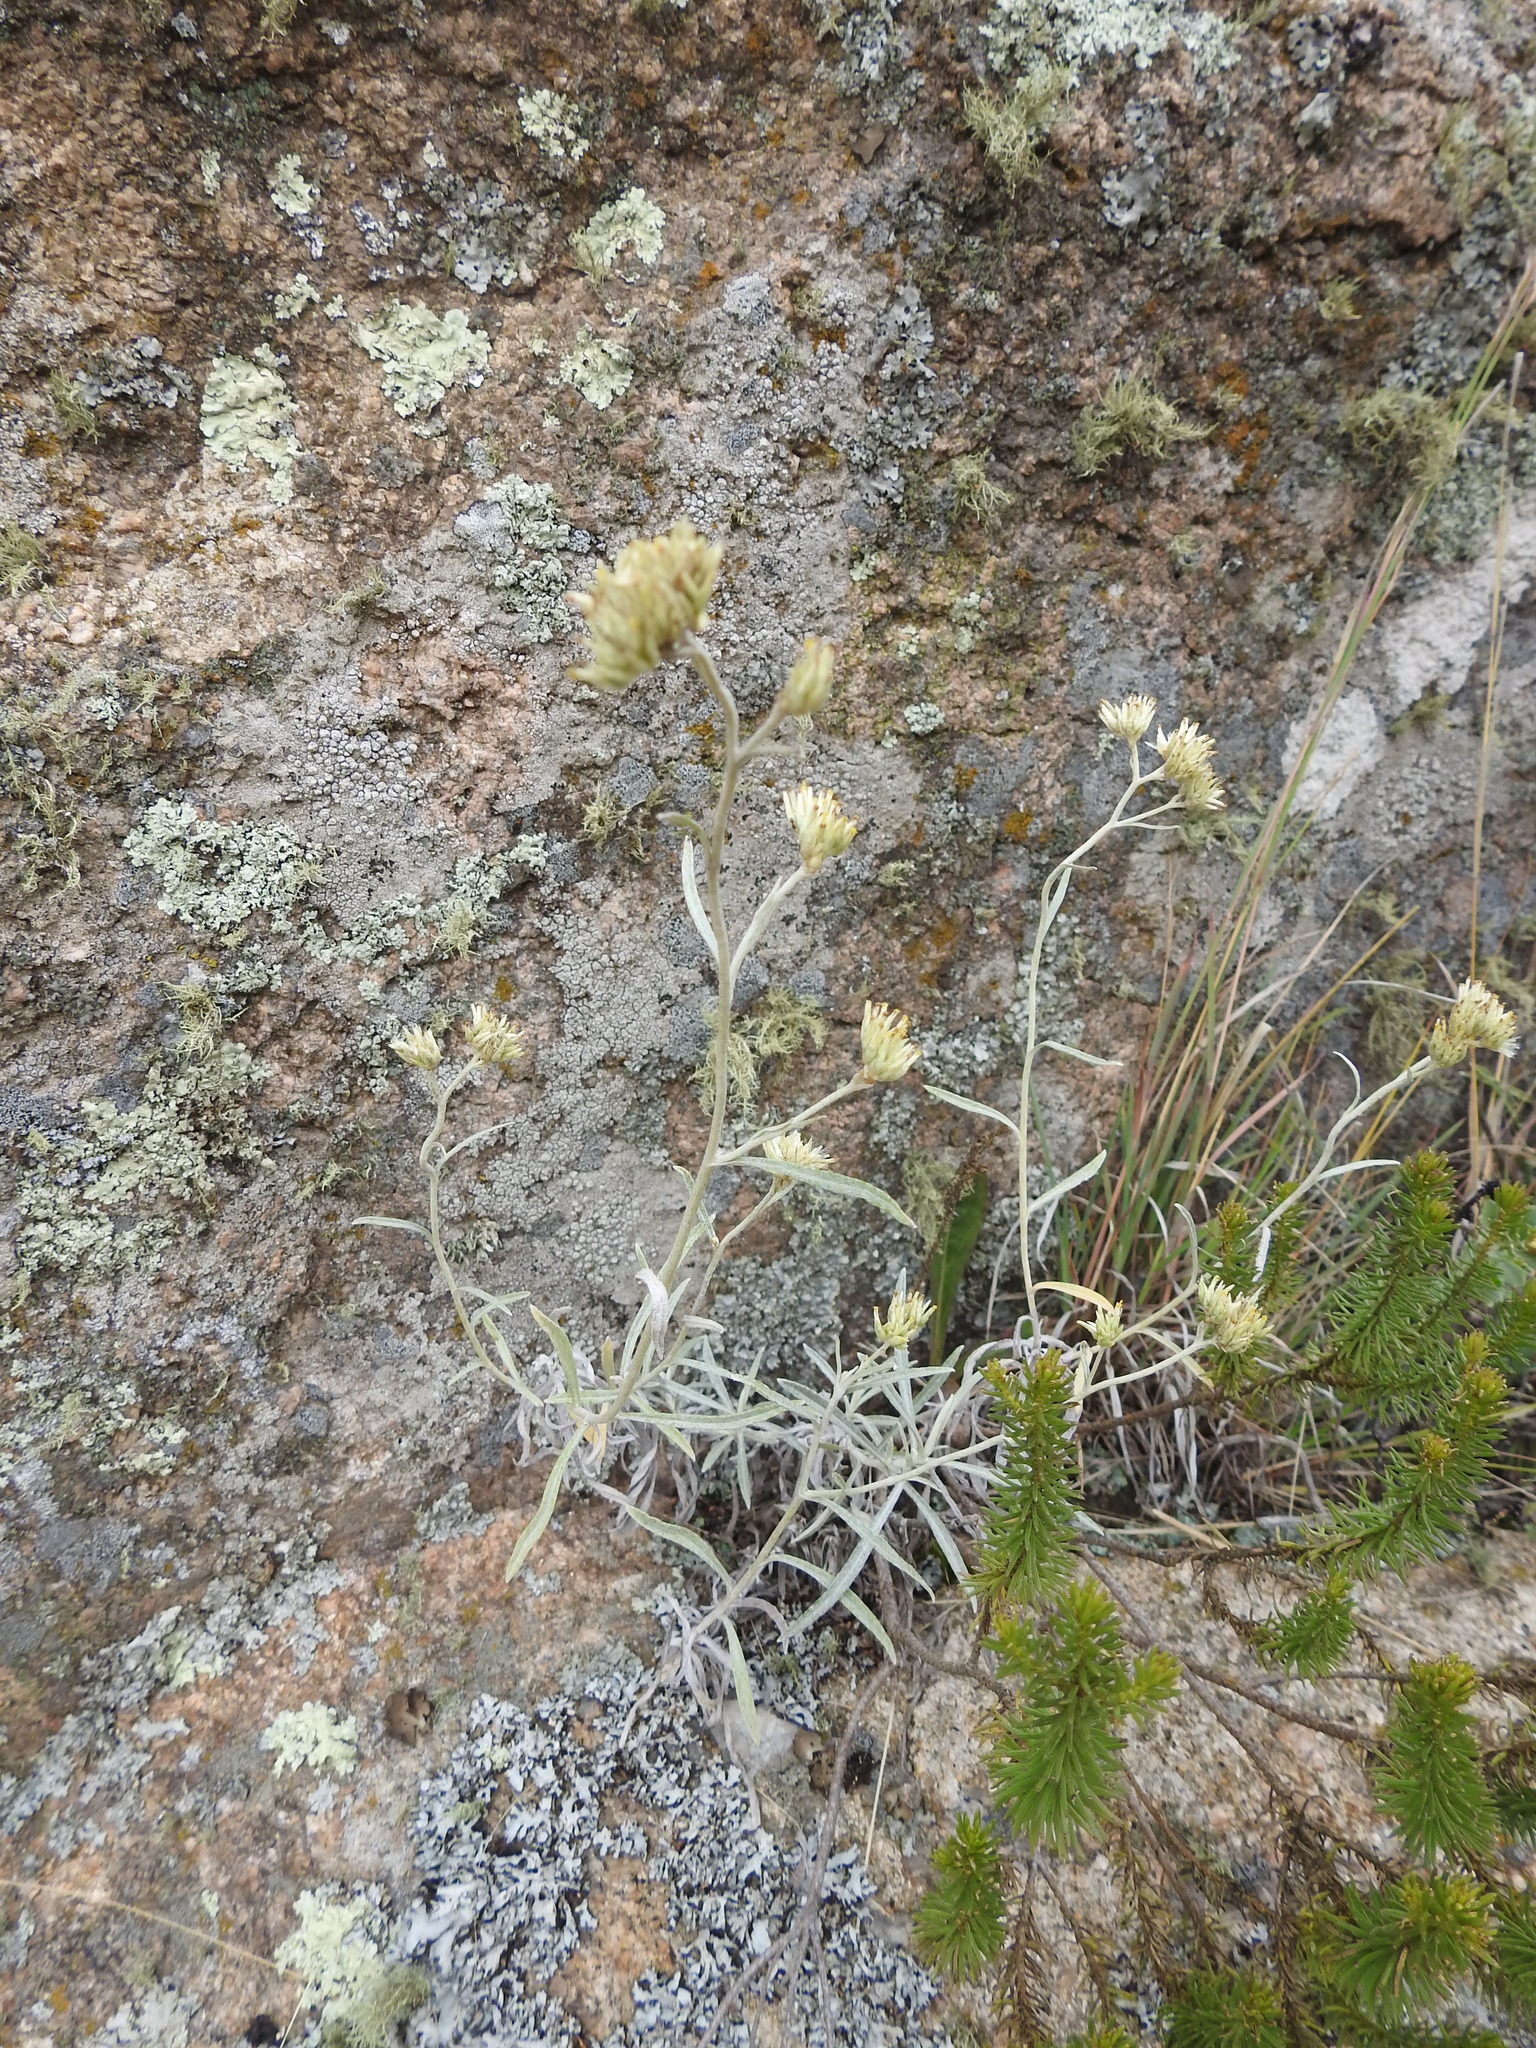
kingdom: Plantae
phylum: Tracheophyta
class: Magnoliopsida
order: Asterales
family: Asteraceae
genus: Achyrocline
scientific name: Achyrocline satureioides
